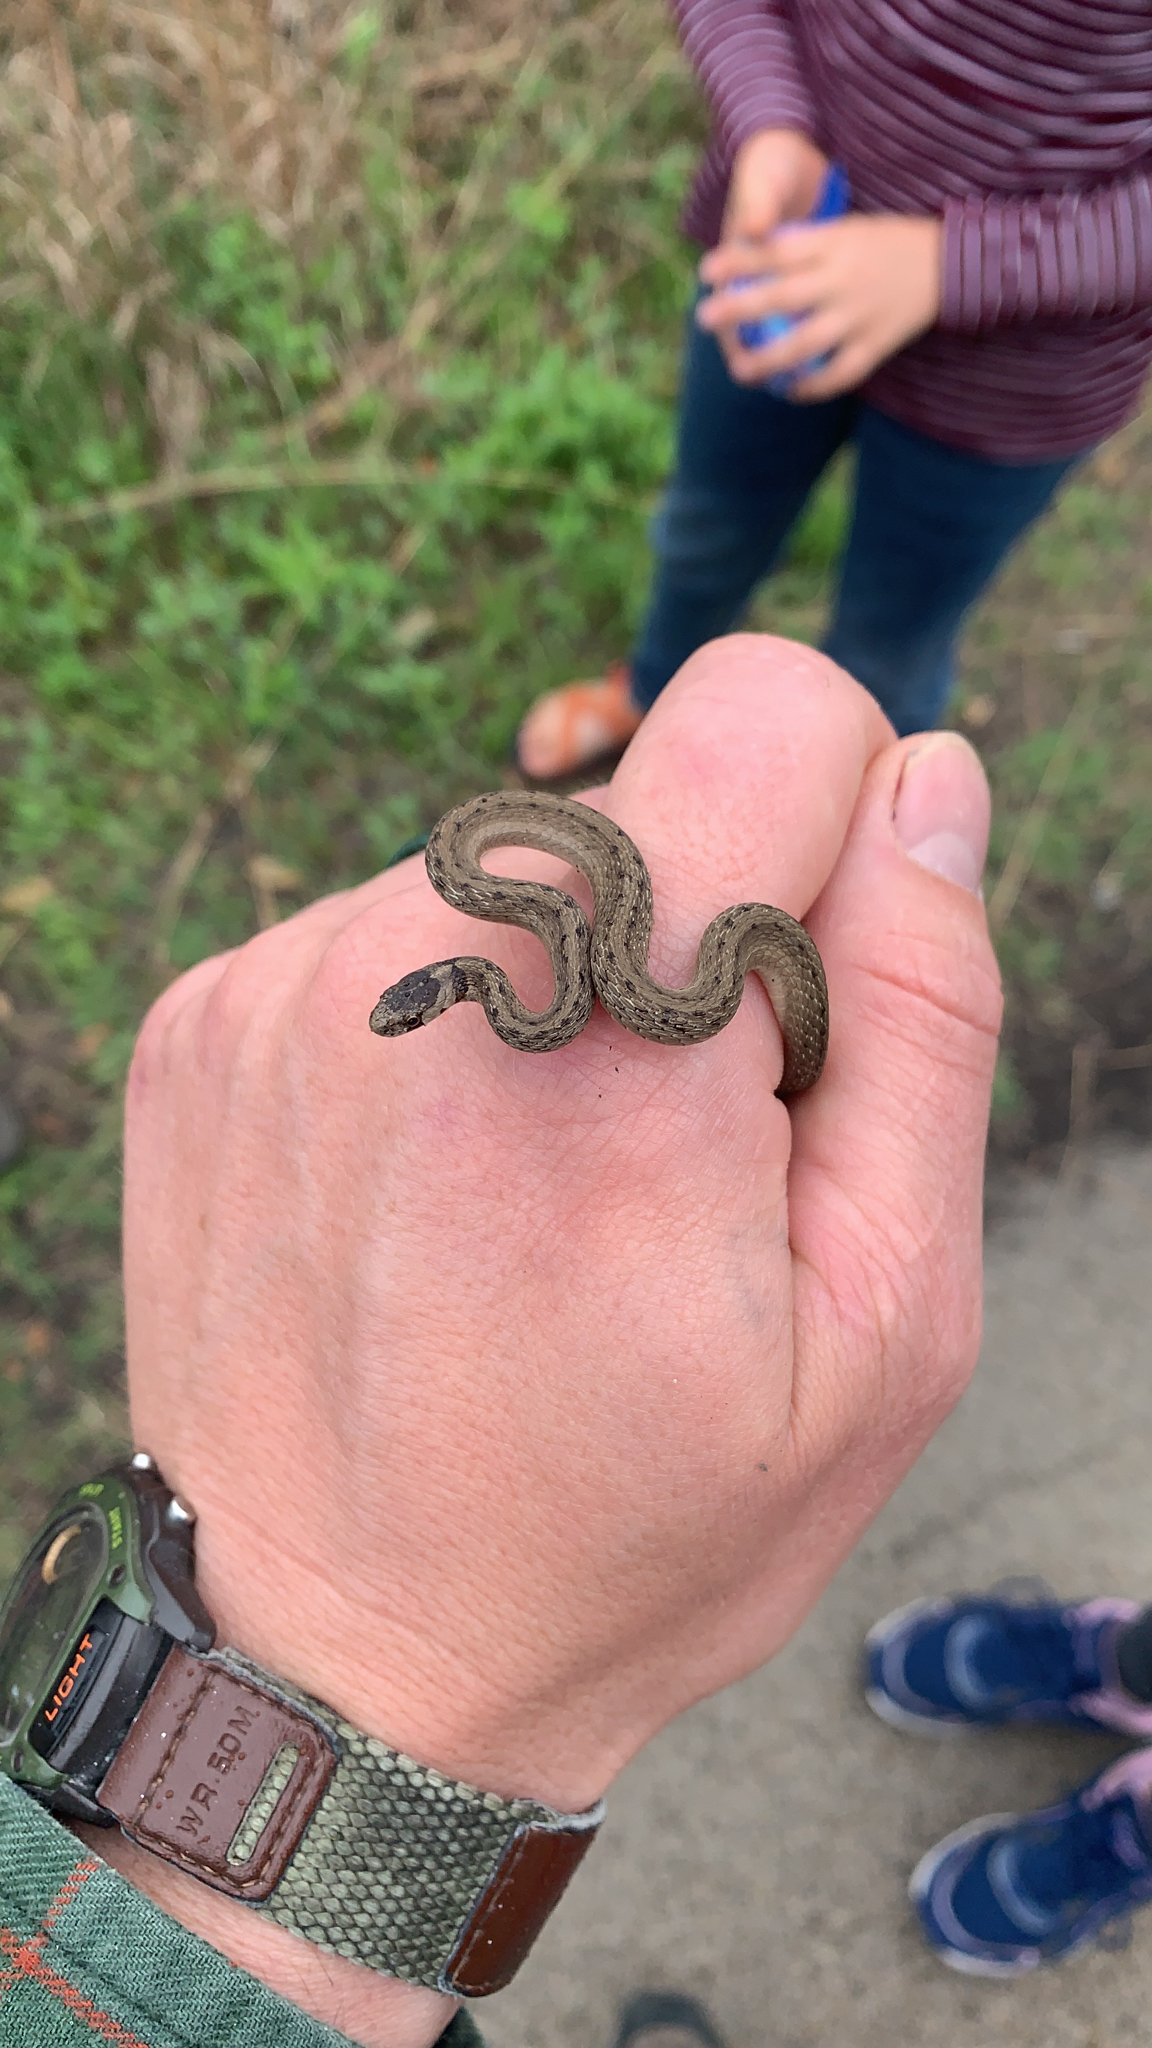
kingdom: Animalia
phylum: Chordata
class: Squamata
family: Colubridae
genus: Storeria
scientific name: Storeria dekayi
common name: (dekay’s) brown snake
